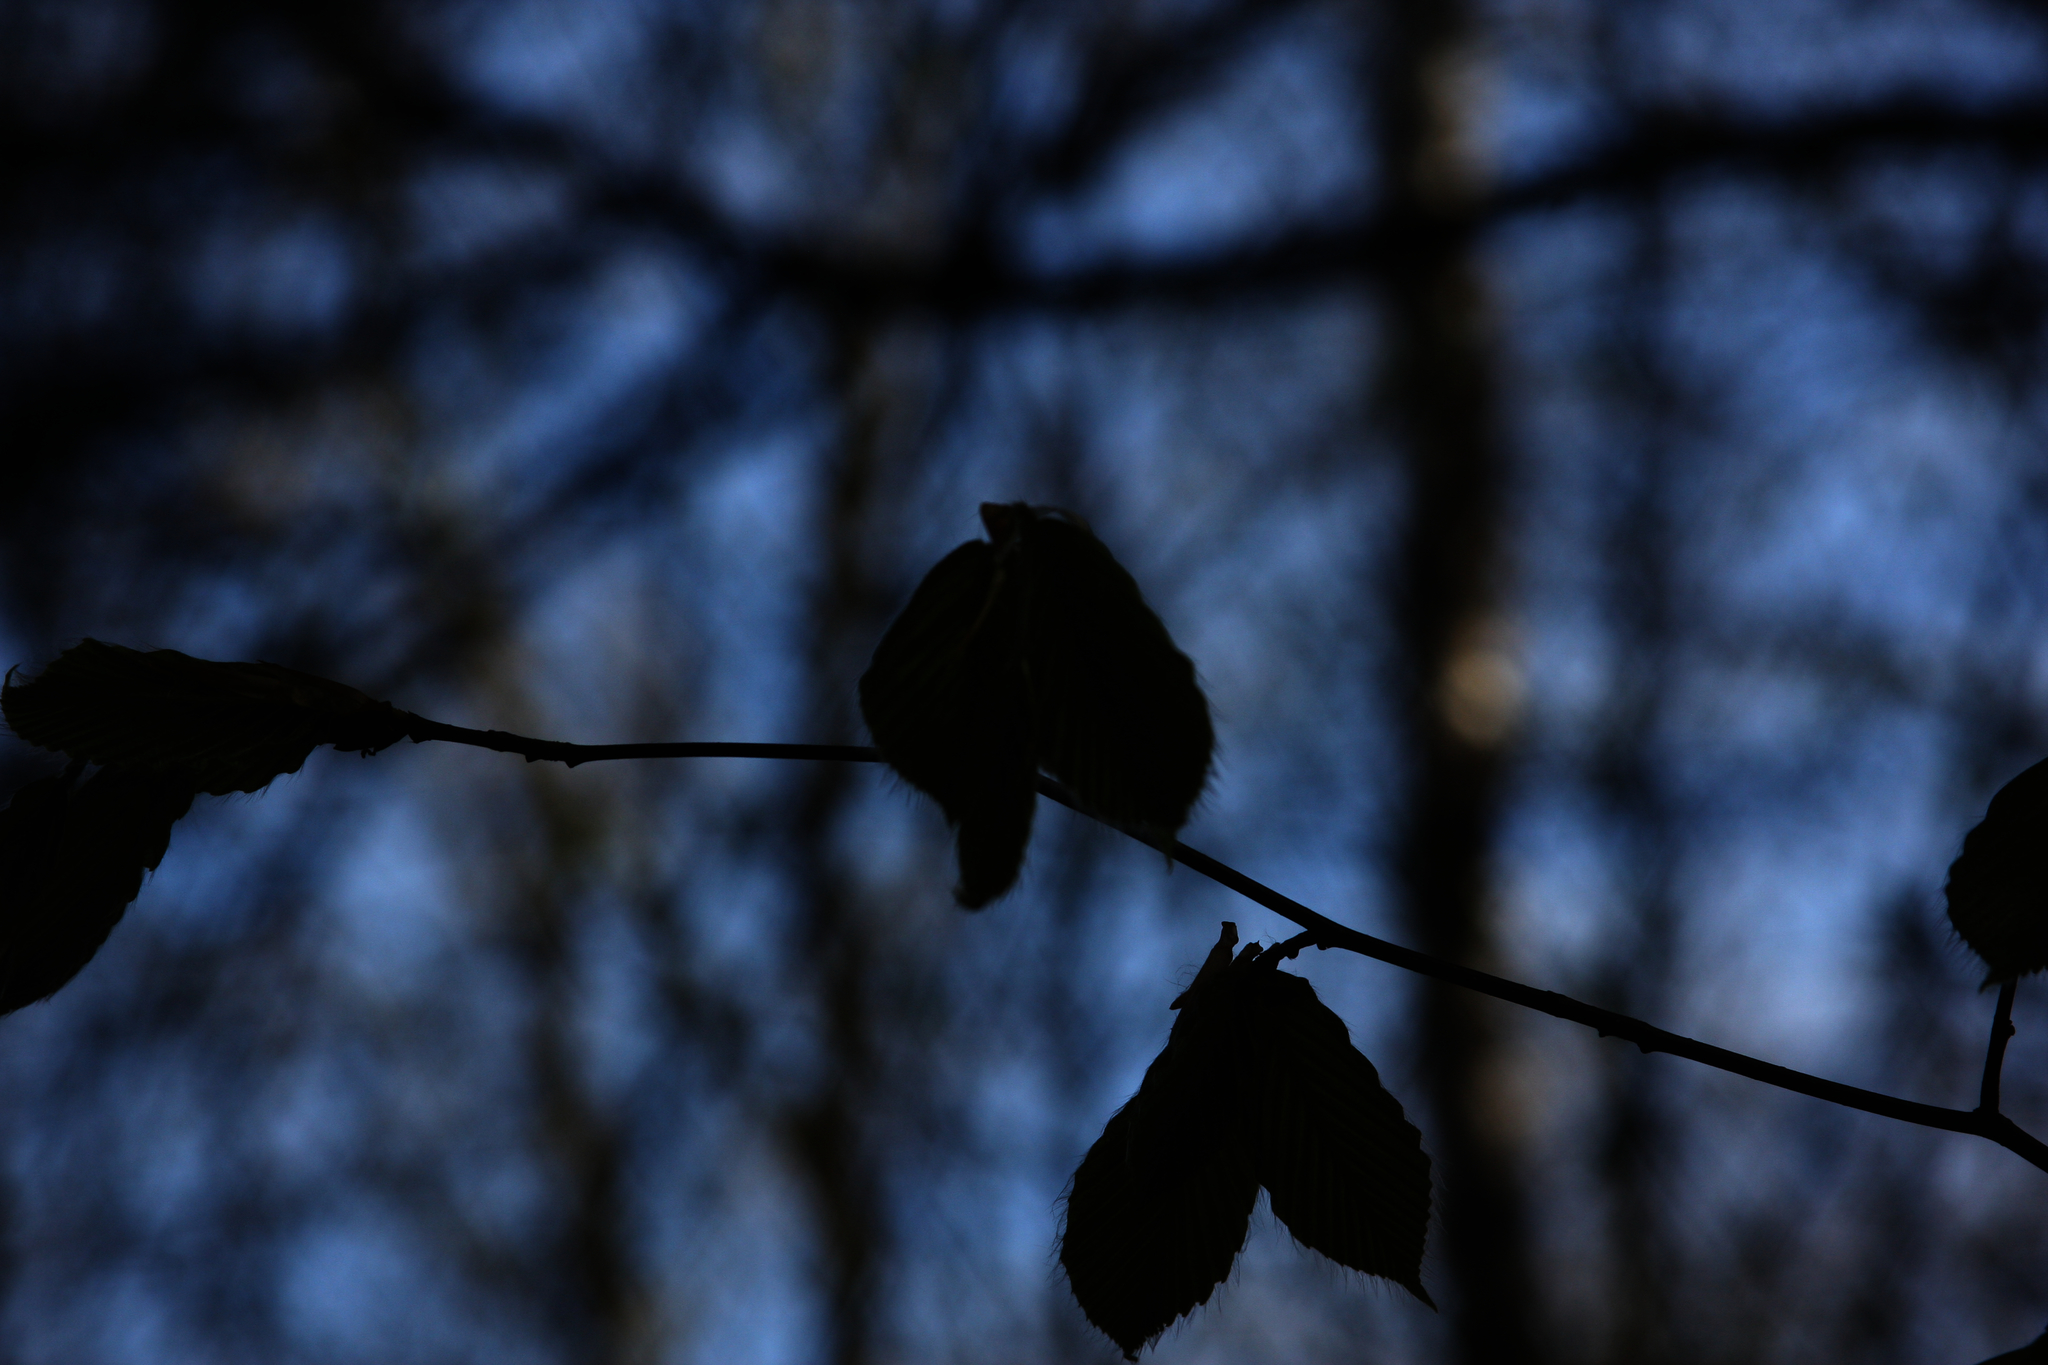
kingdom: Plantae
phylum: Tracheophyta
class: Magnoliopsida
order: Fagales
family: Fagaceae
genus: Fagus
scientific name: Fagus grandifolia
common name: American beech
